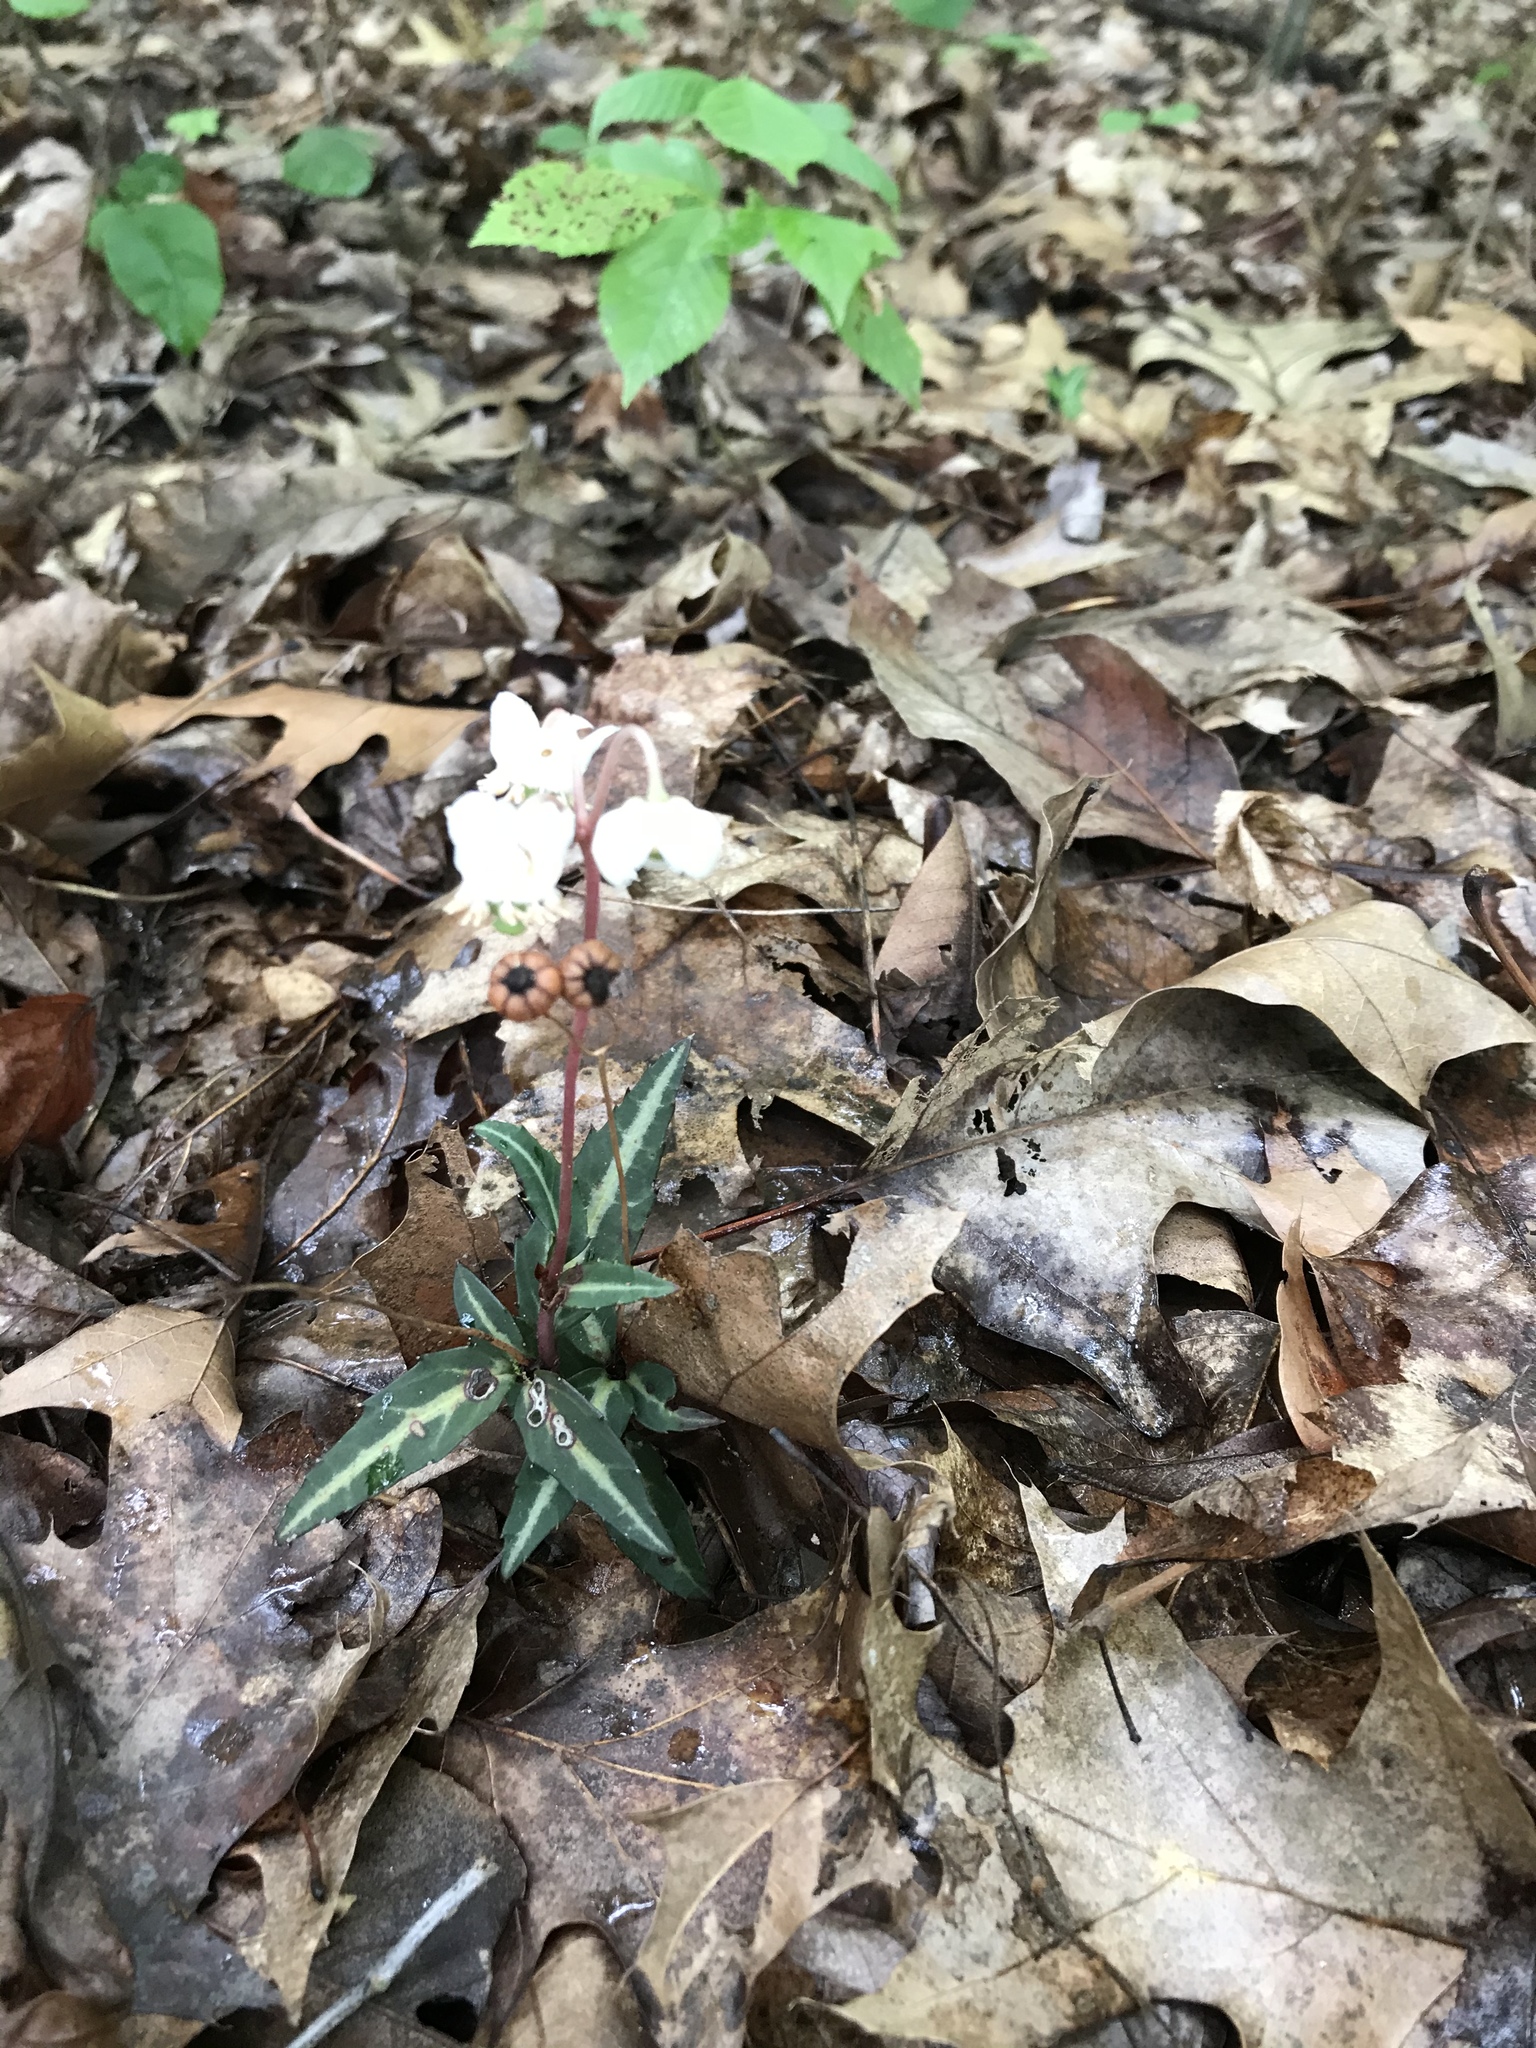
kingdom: Plantae
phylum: Tracheophyta
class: Magnoliopsida
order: Ericales
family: Ericaceae
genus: Chimaphila
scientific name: Chimaphila maculata
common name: Spotted pipsissewa
